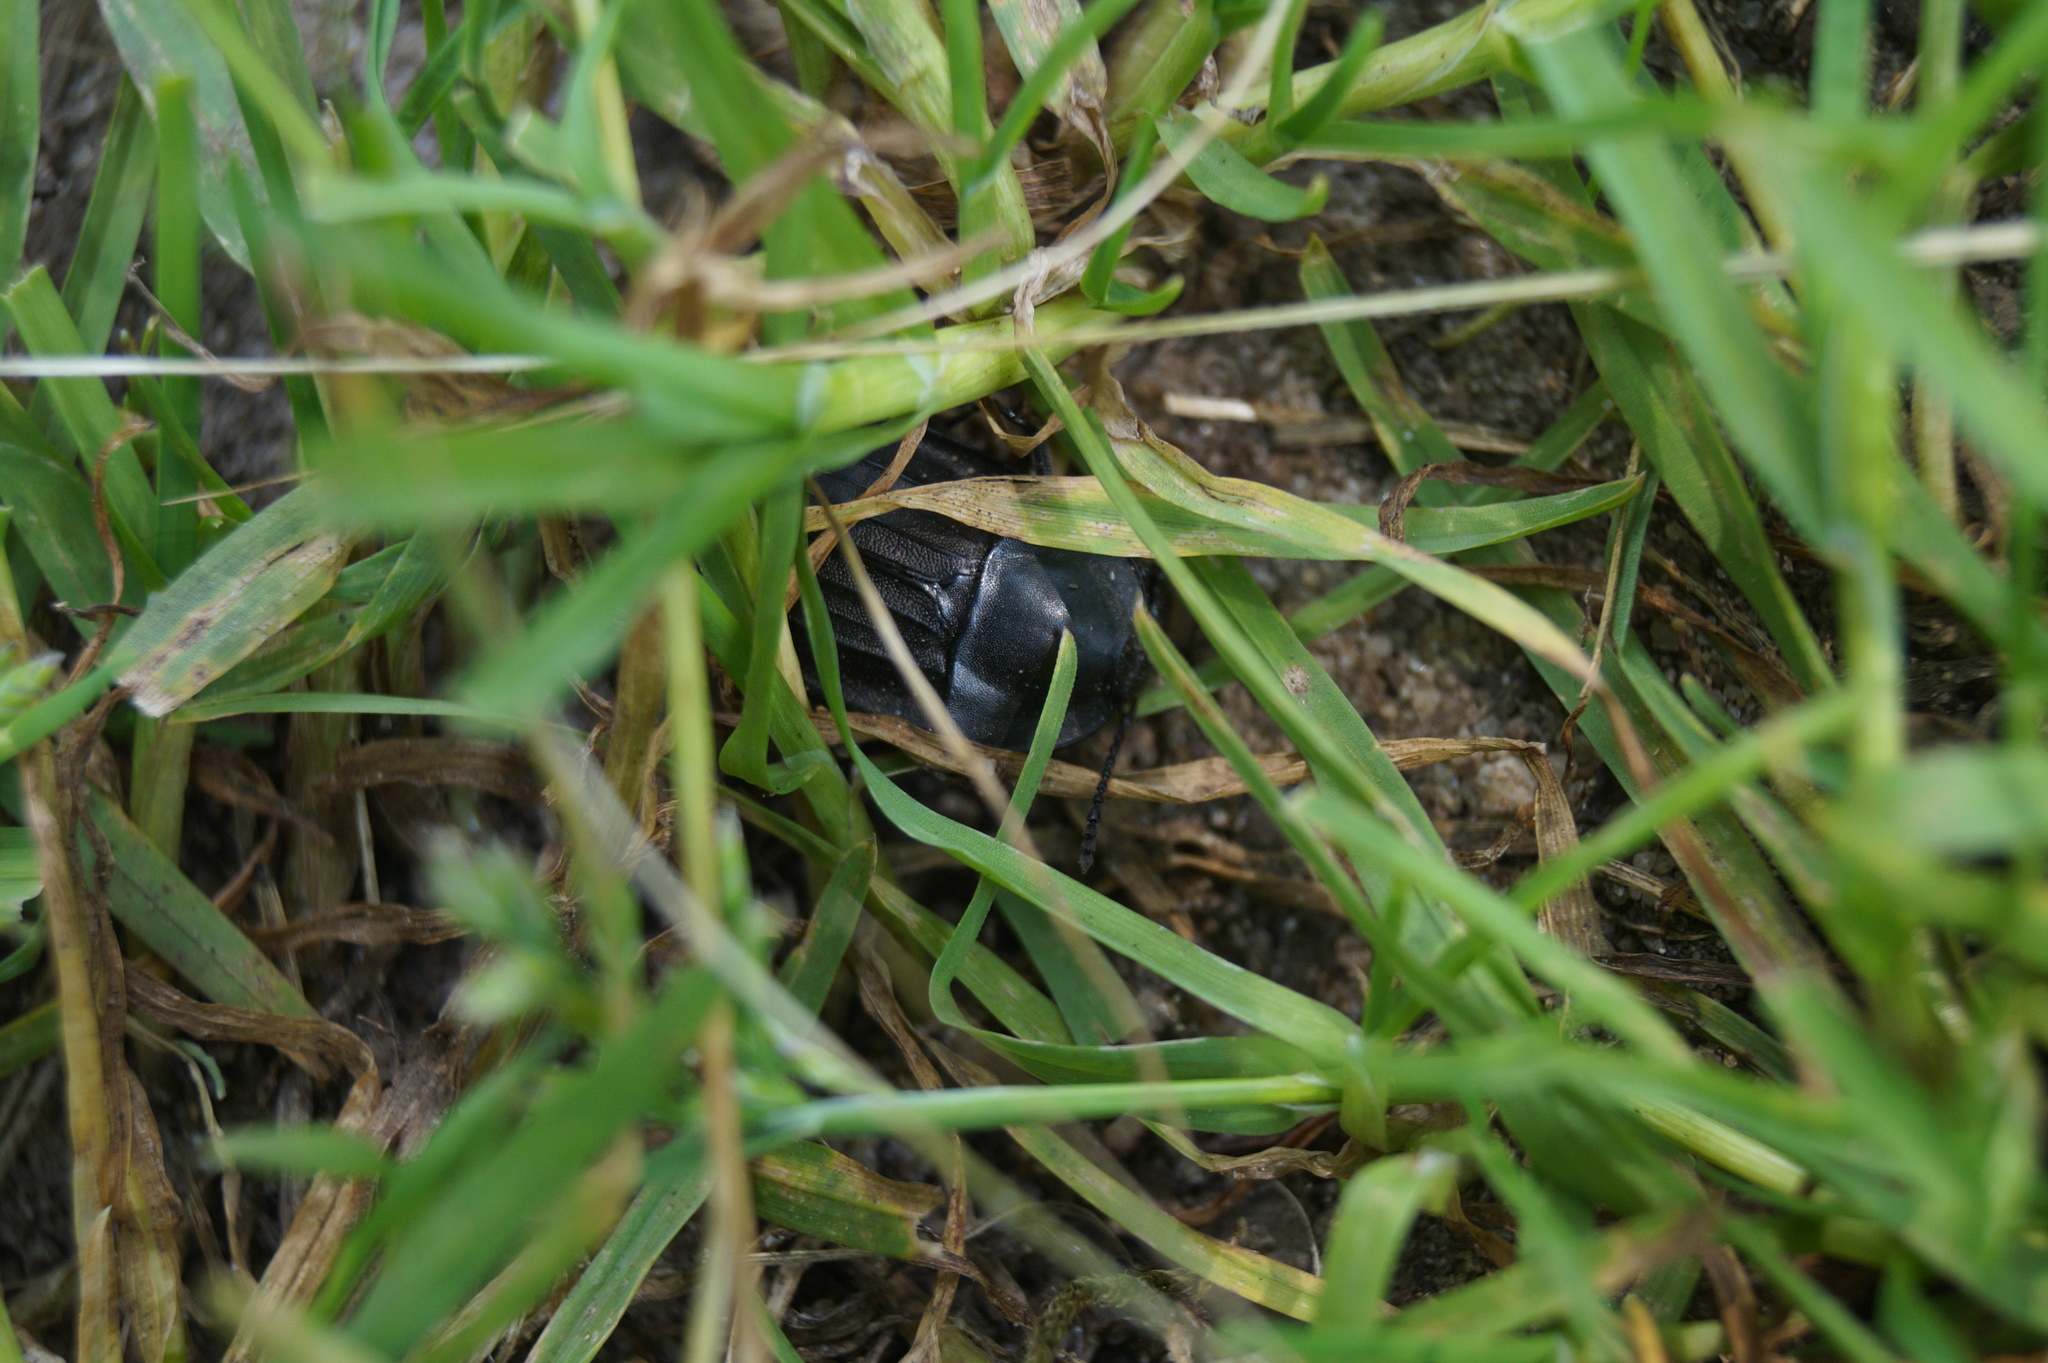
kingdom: Animalia
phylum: Arthropoda
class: Insecta
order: Coleoptera
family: Staphylinidae
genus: Silpha
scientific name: Silpha carinata
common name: Silphid beetle
